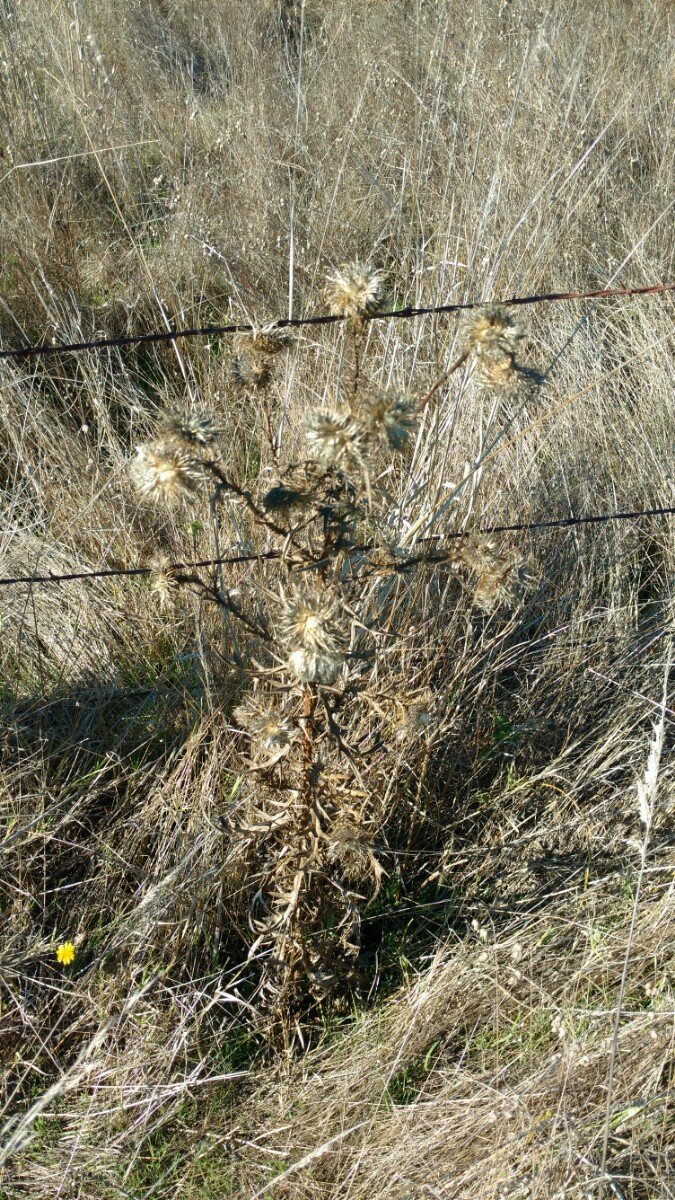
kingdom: Plantae
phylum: Tracheophyta
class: Magnoliopsida
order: Asterales
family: Asteraceae
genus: Cirsium
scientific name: Cirsium vulgare
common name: Bull thistle
